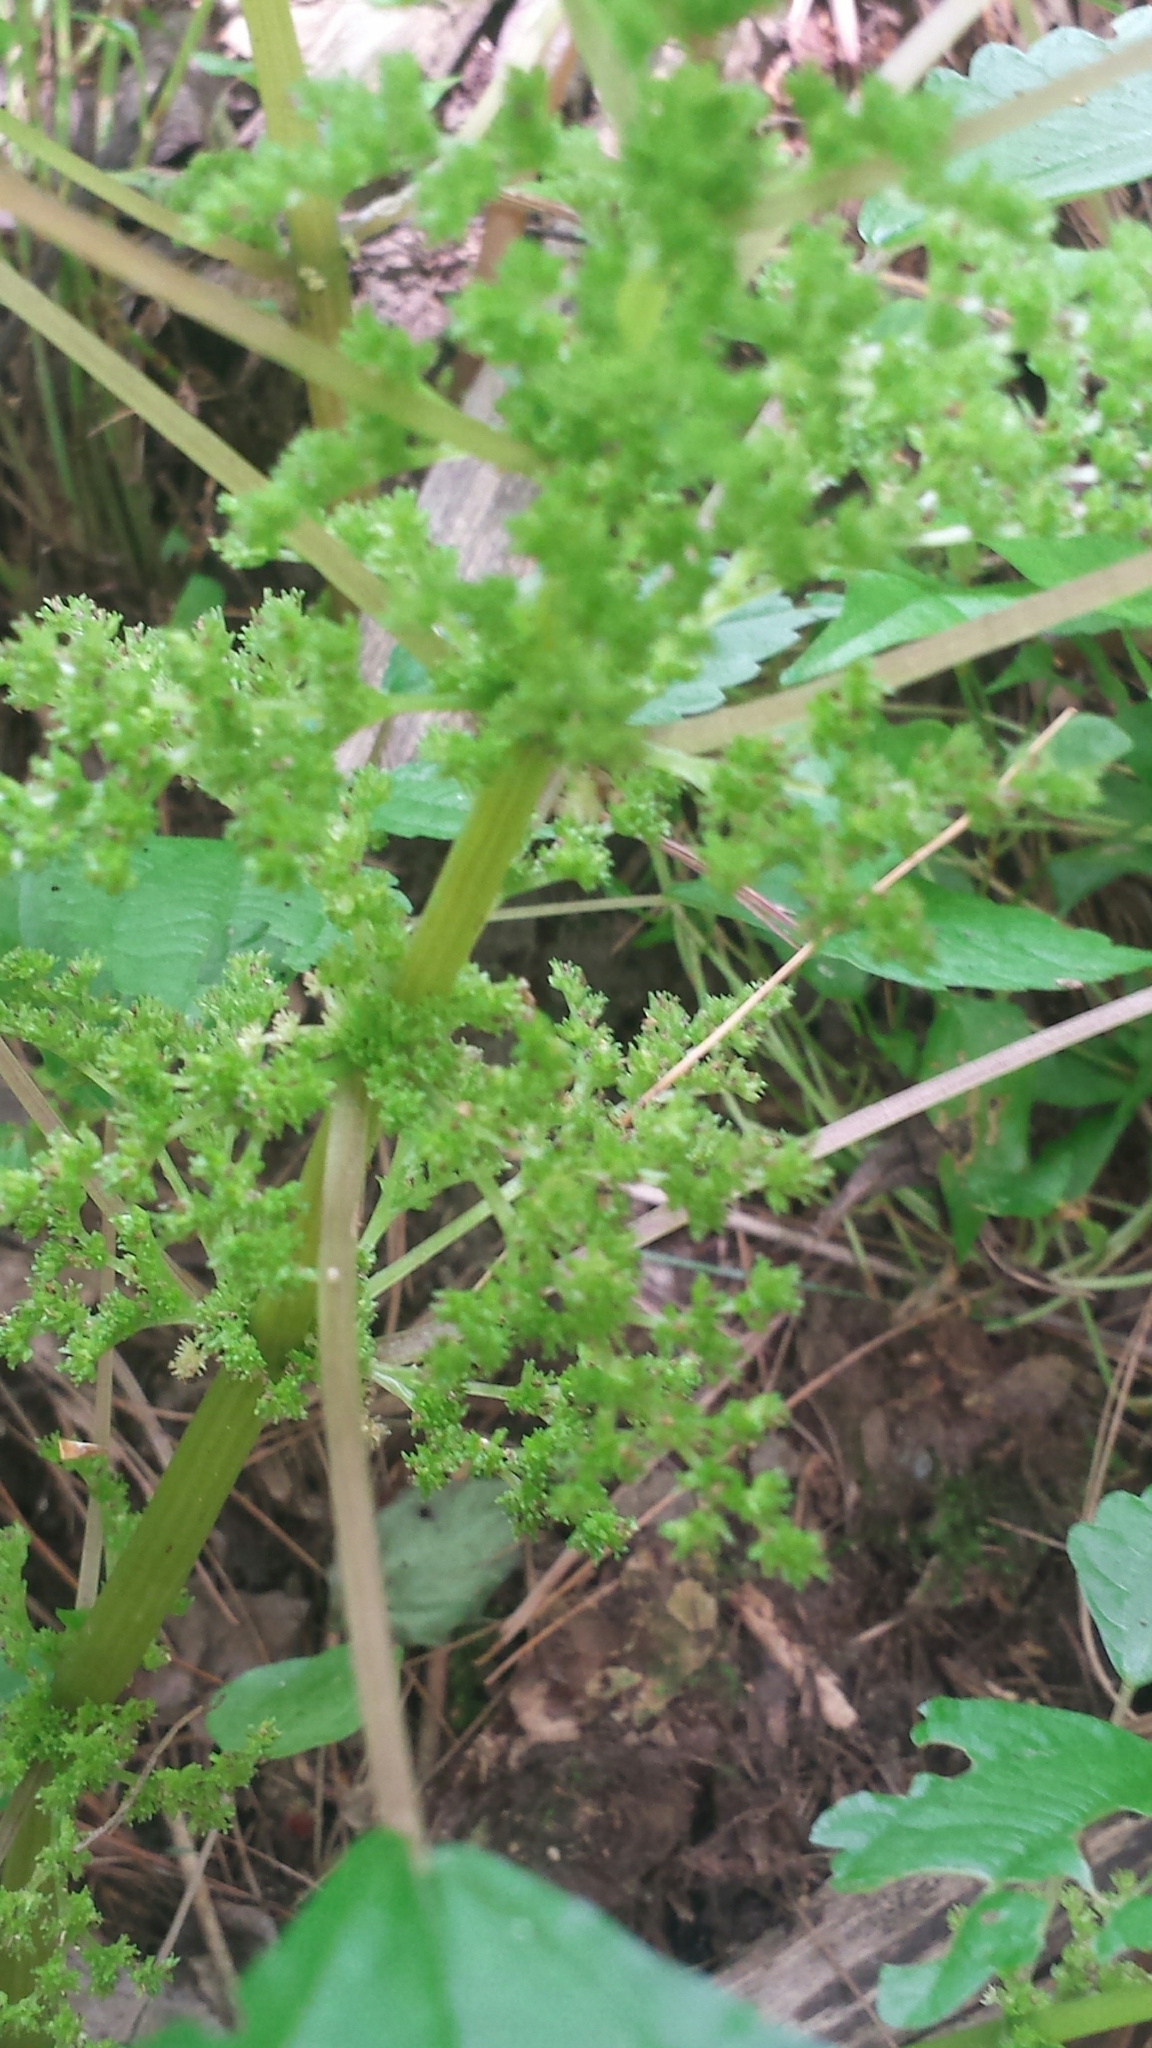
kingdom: Plantae
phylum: Tracheophyta
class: Magnoliopsida
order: Rosales
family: Urticaceae
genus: Pilea
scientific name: Pilea pumila
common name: Clearweed
